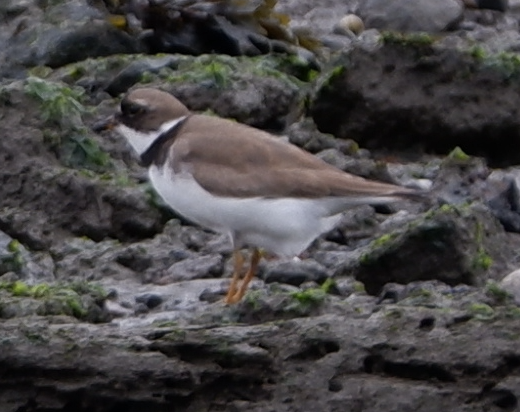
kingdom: Animalia
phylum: Chordata
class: Aves
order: Charadriiformes
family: Charadriidae
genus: Charadrius
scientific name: Charadrius semipalmatus
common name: Semipalmated plover
